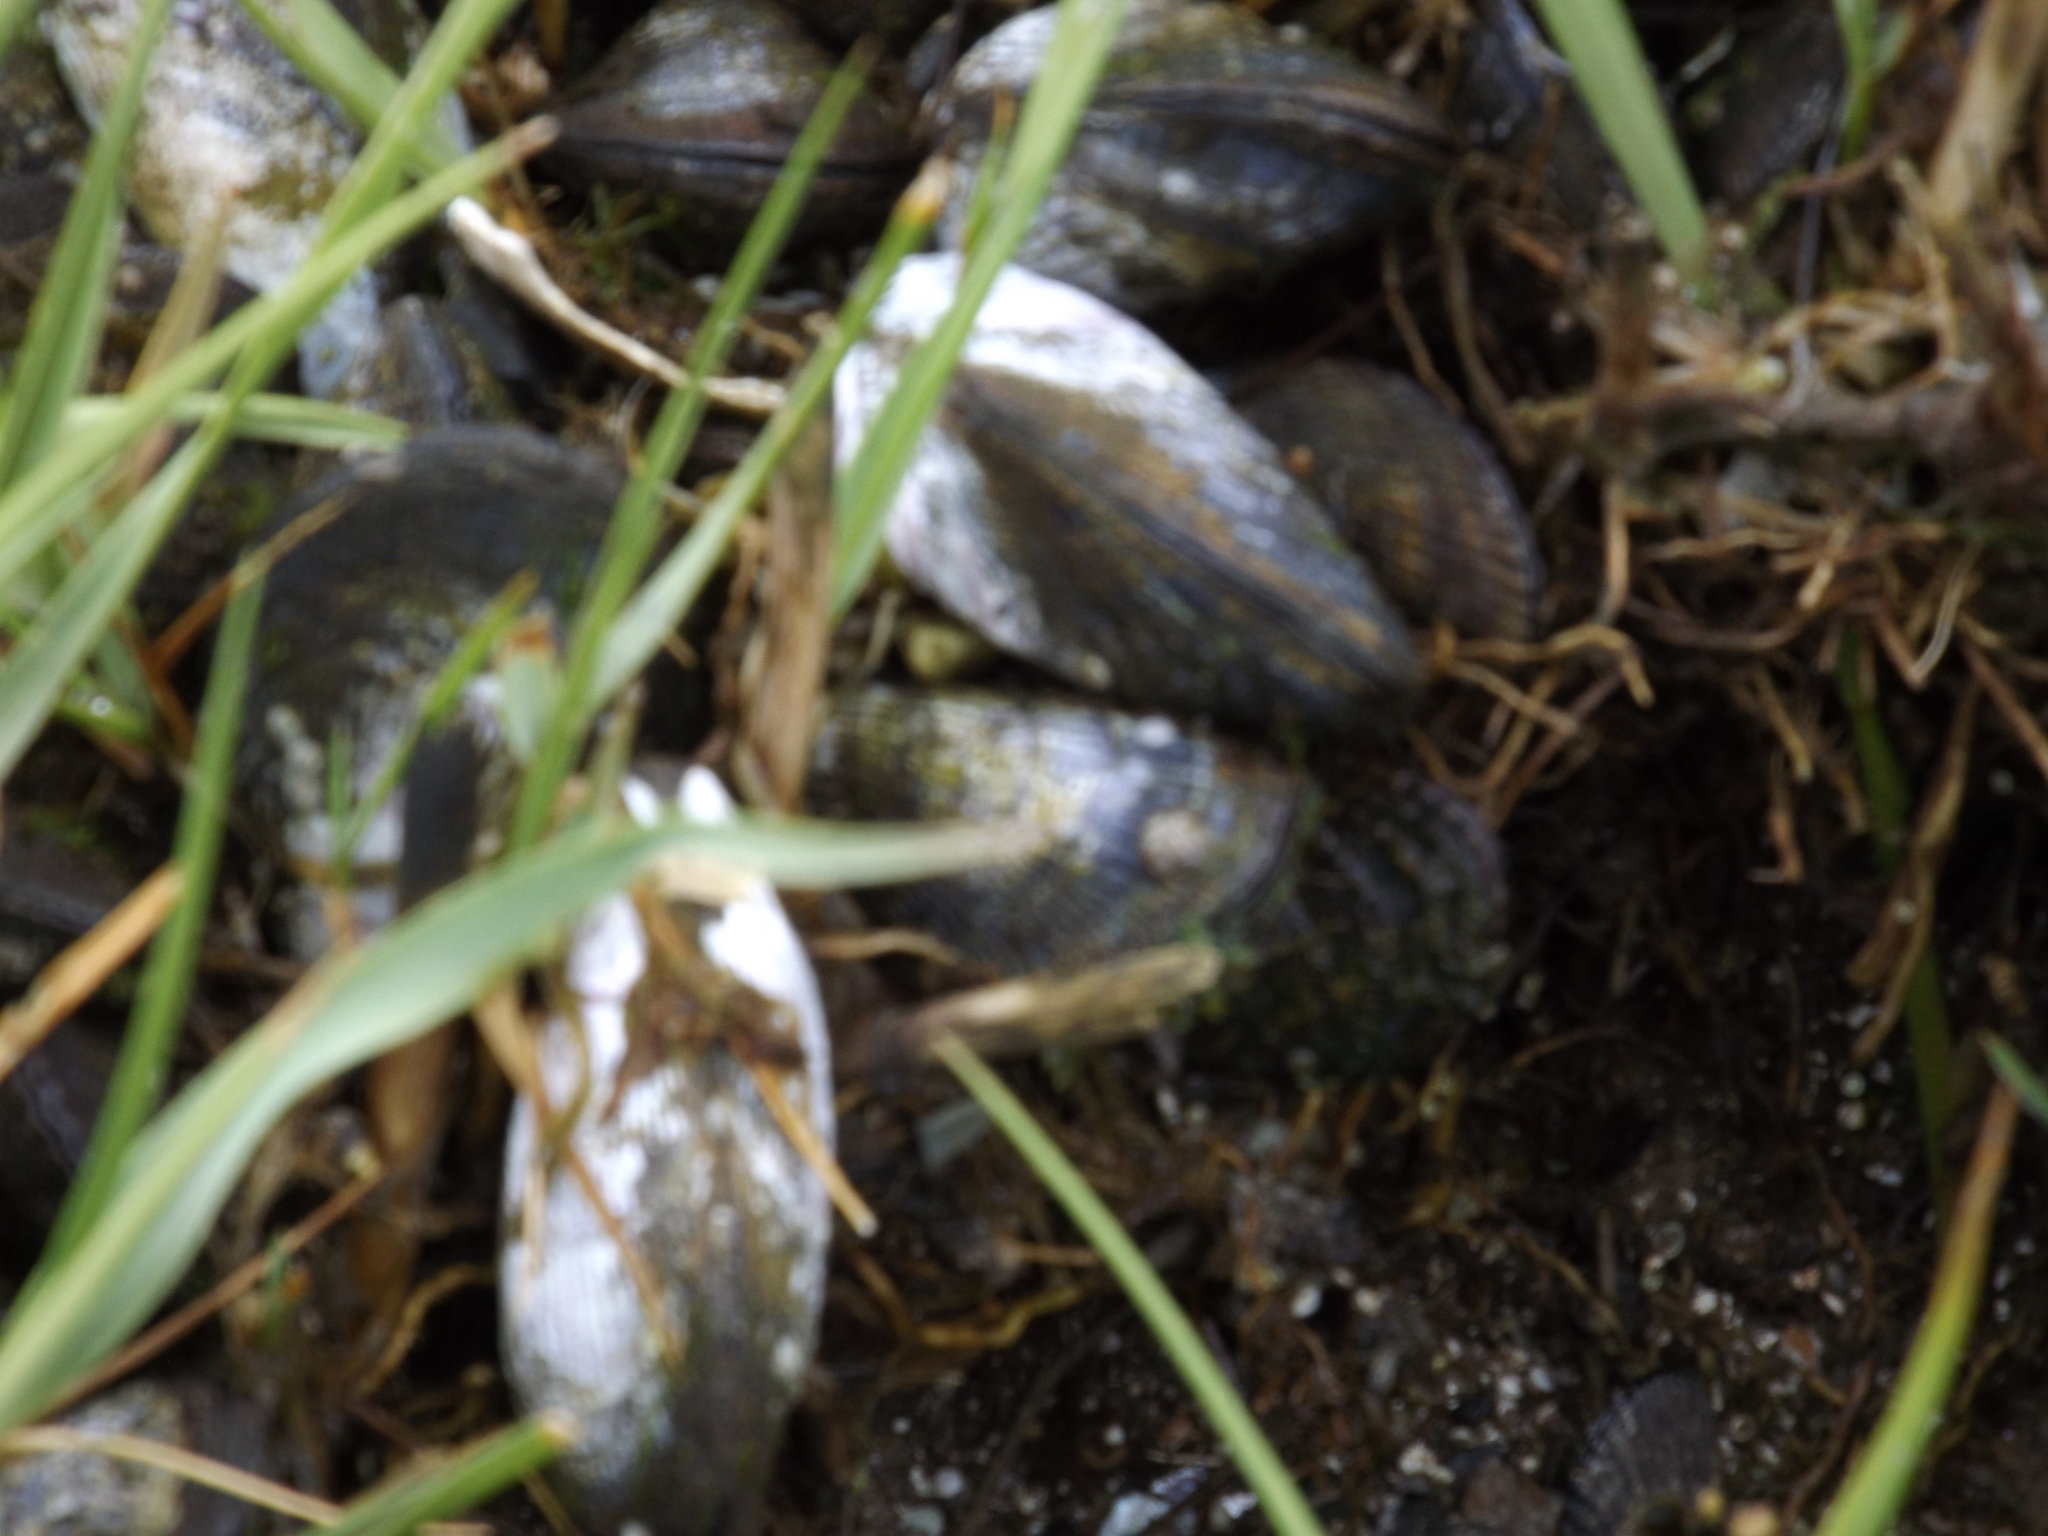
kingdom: Animalia
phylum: Mollusca
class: Bivalvia
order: Mytilida
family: Mytilidae
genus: Geukensia
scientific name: Geukensia demissa
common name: Ribbed mussel
